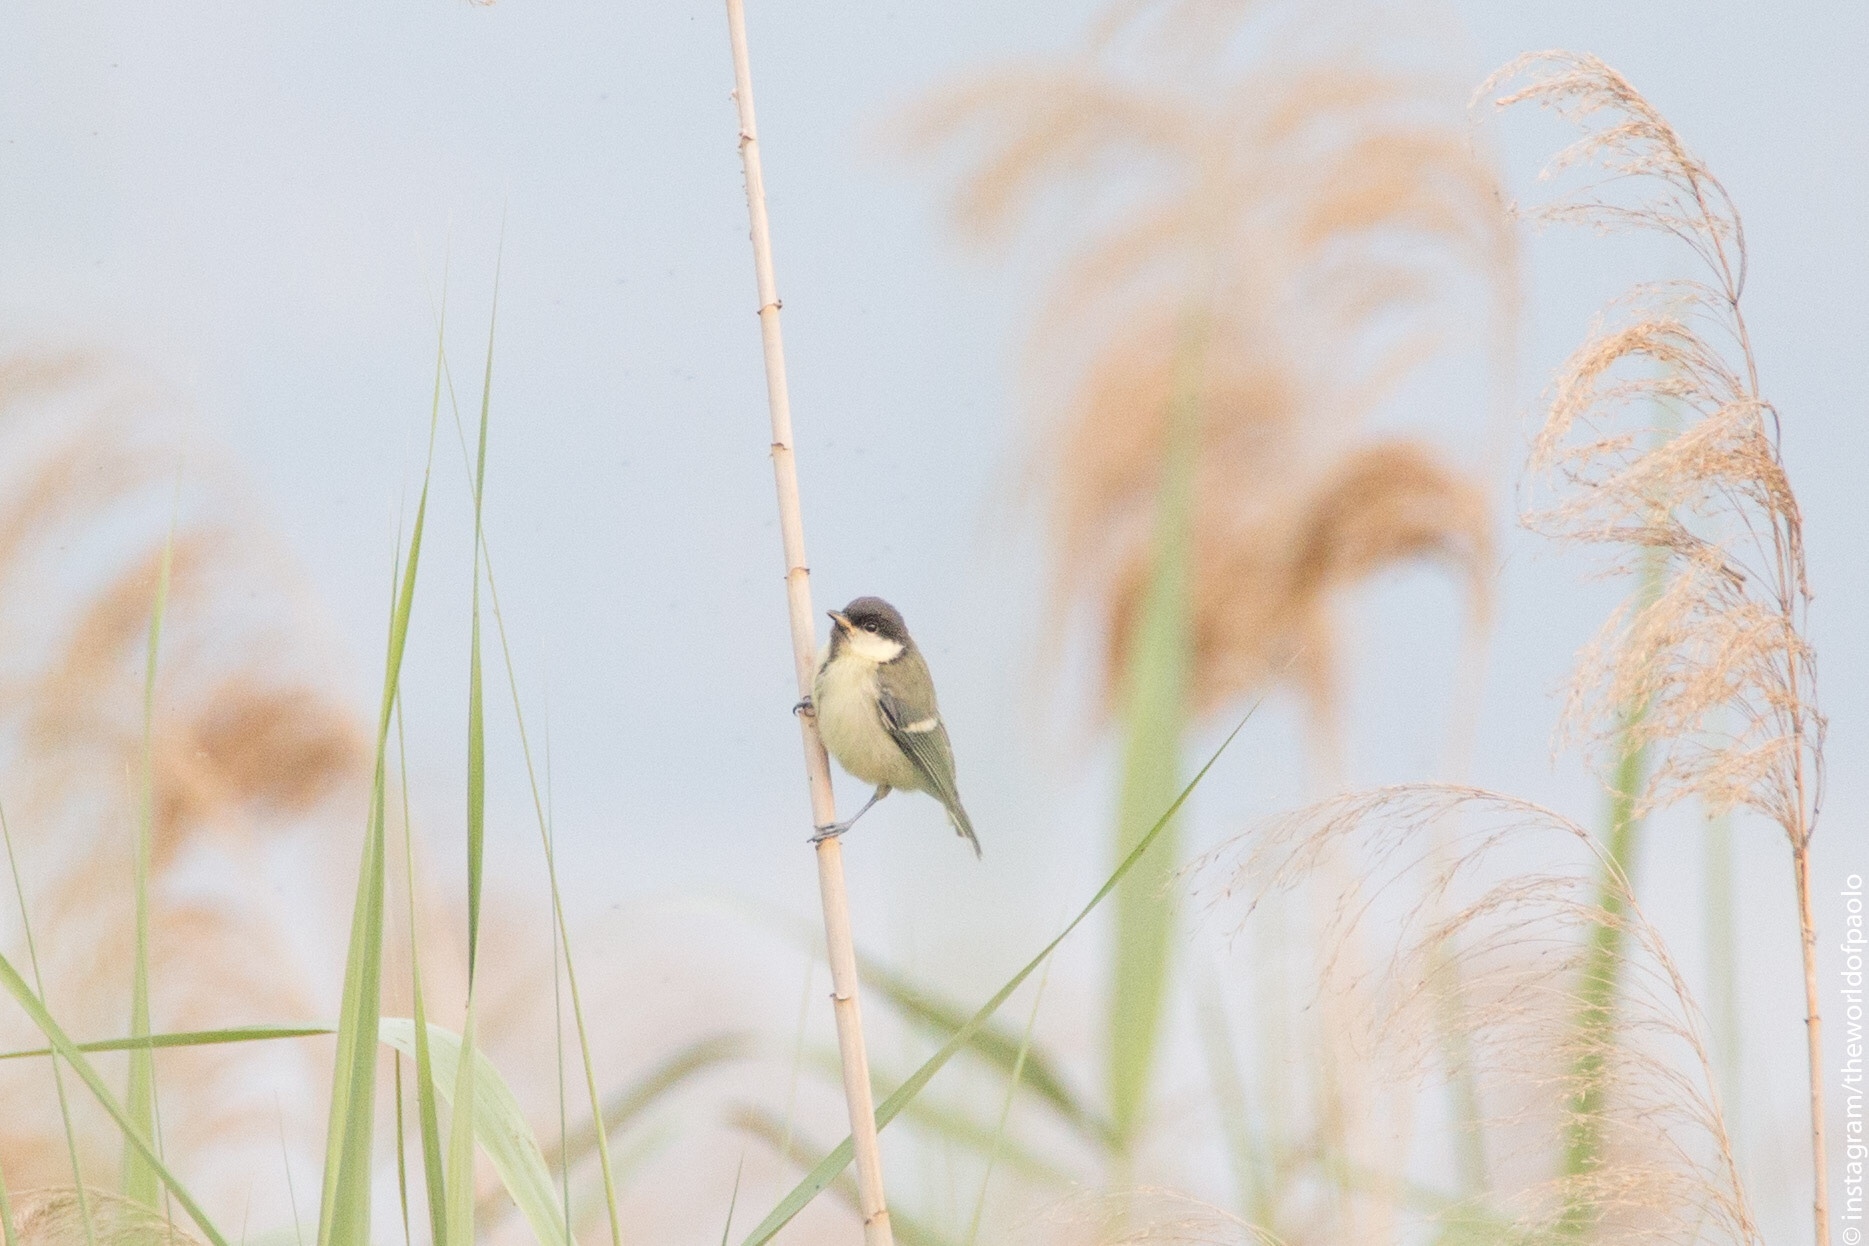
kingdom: Animalia
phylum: Chordata
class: Aves
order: Passeriformes
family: Paridae
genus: Parus
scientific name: Parus major
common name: Great tit
